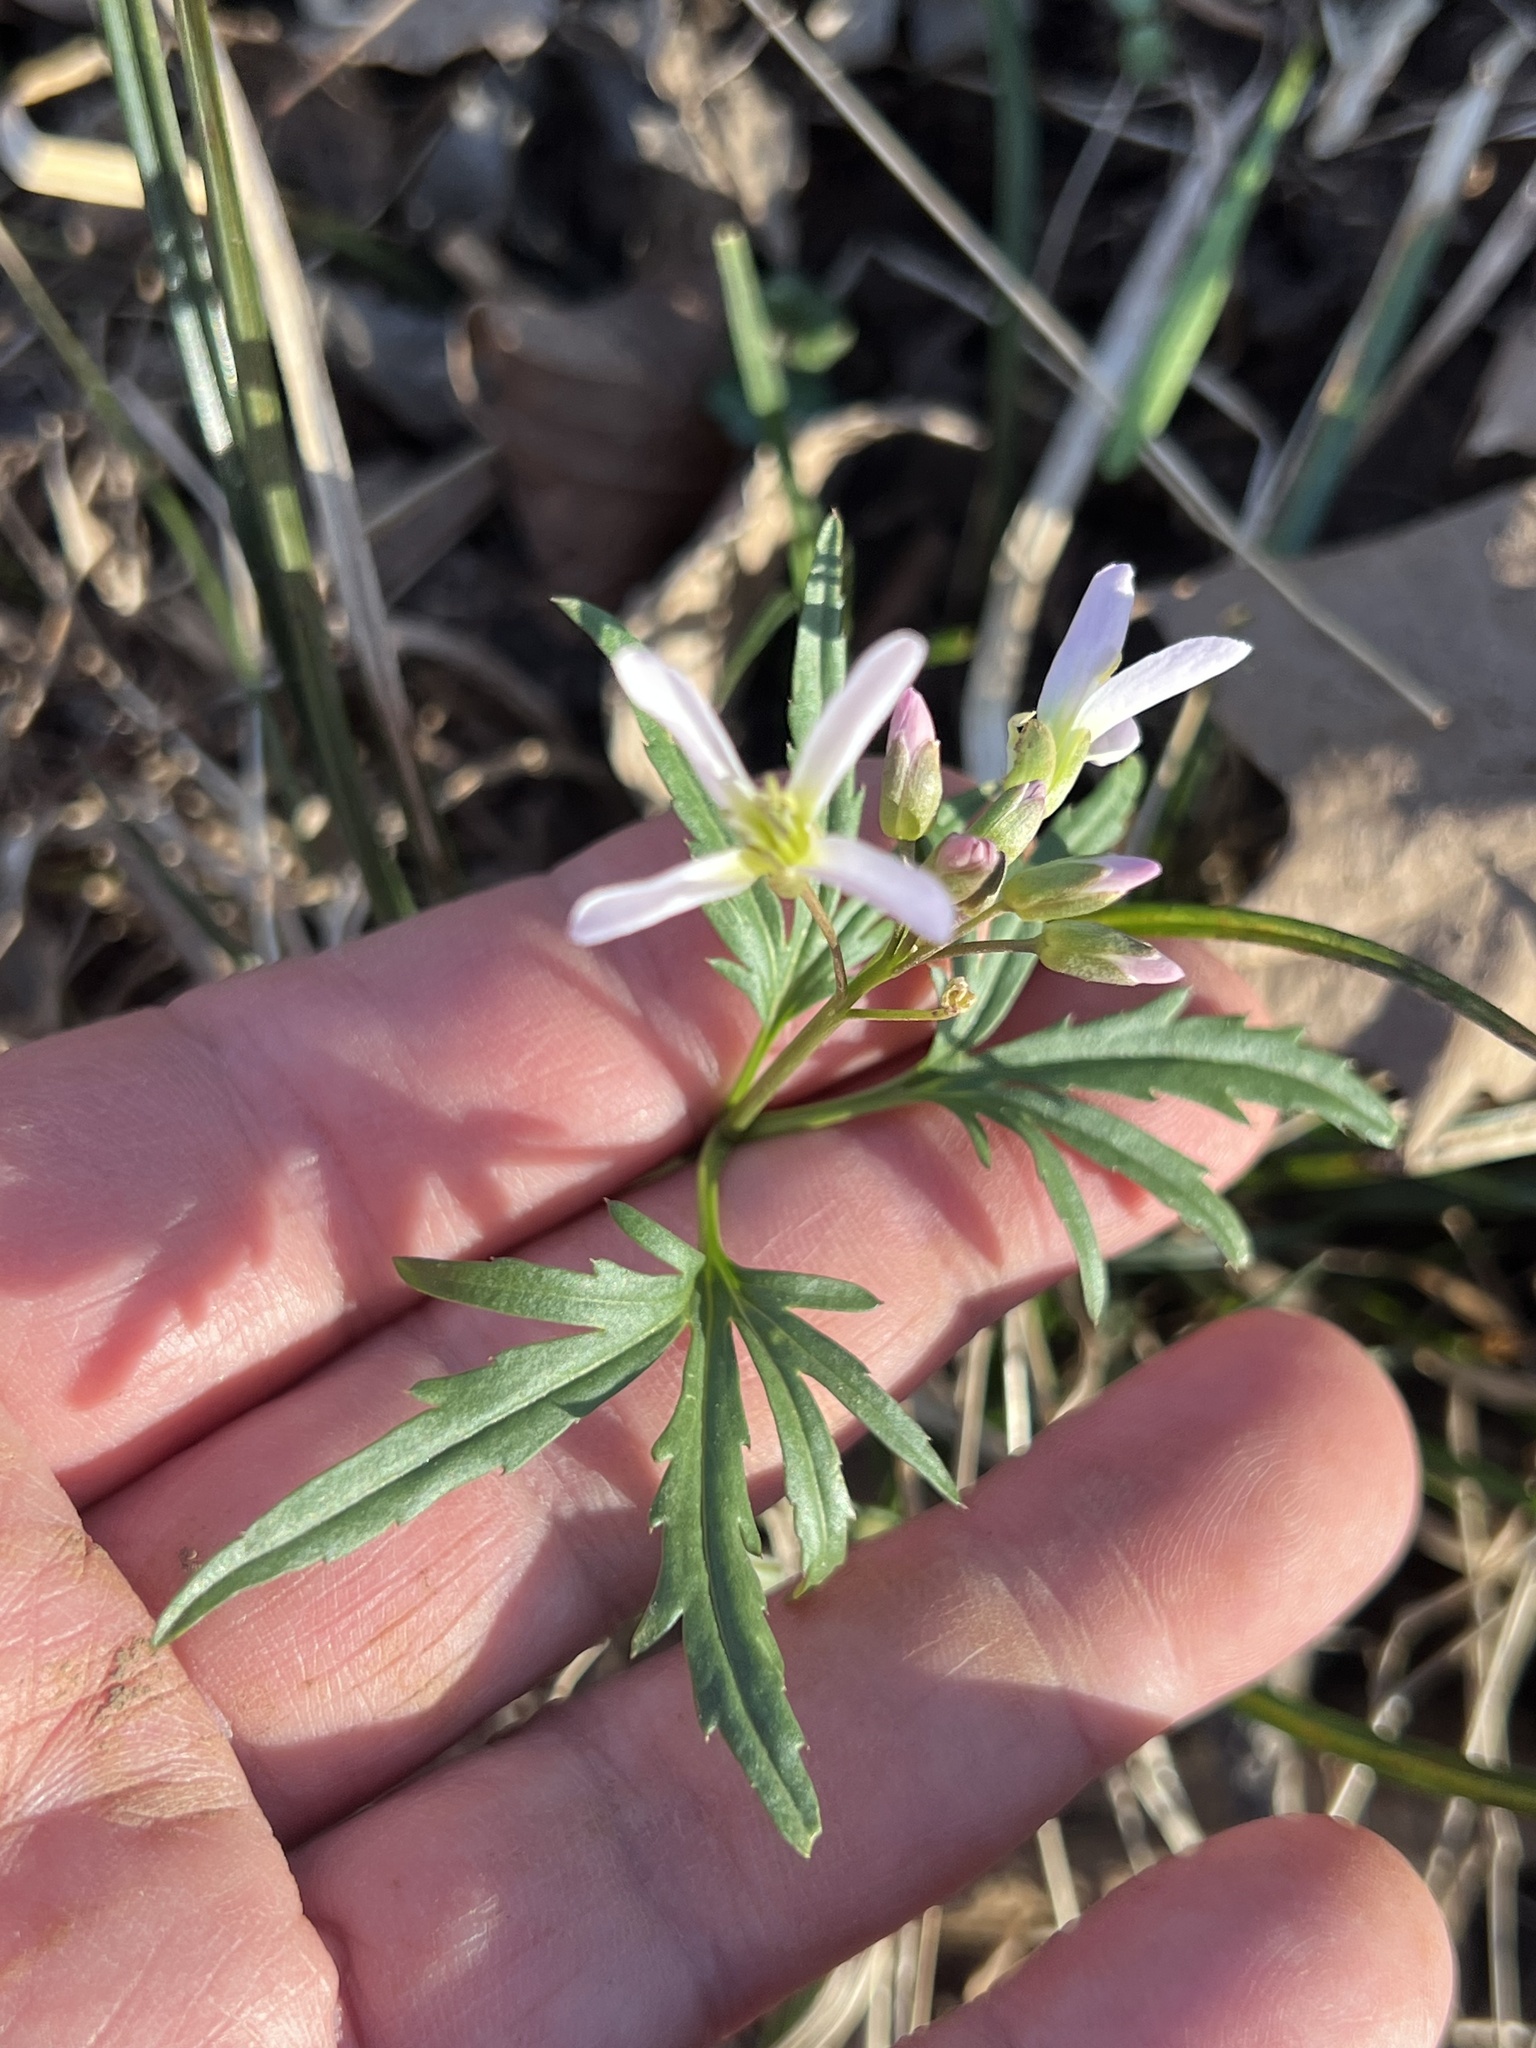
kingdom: Plantae
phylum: Tracheophyta
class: Magnoliopsida
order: Brassicales
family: Brassicaceae
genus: Cardamine
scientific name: Cardamine concatenata
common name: Cut-leaf toothcup
